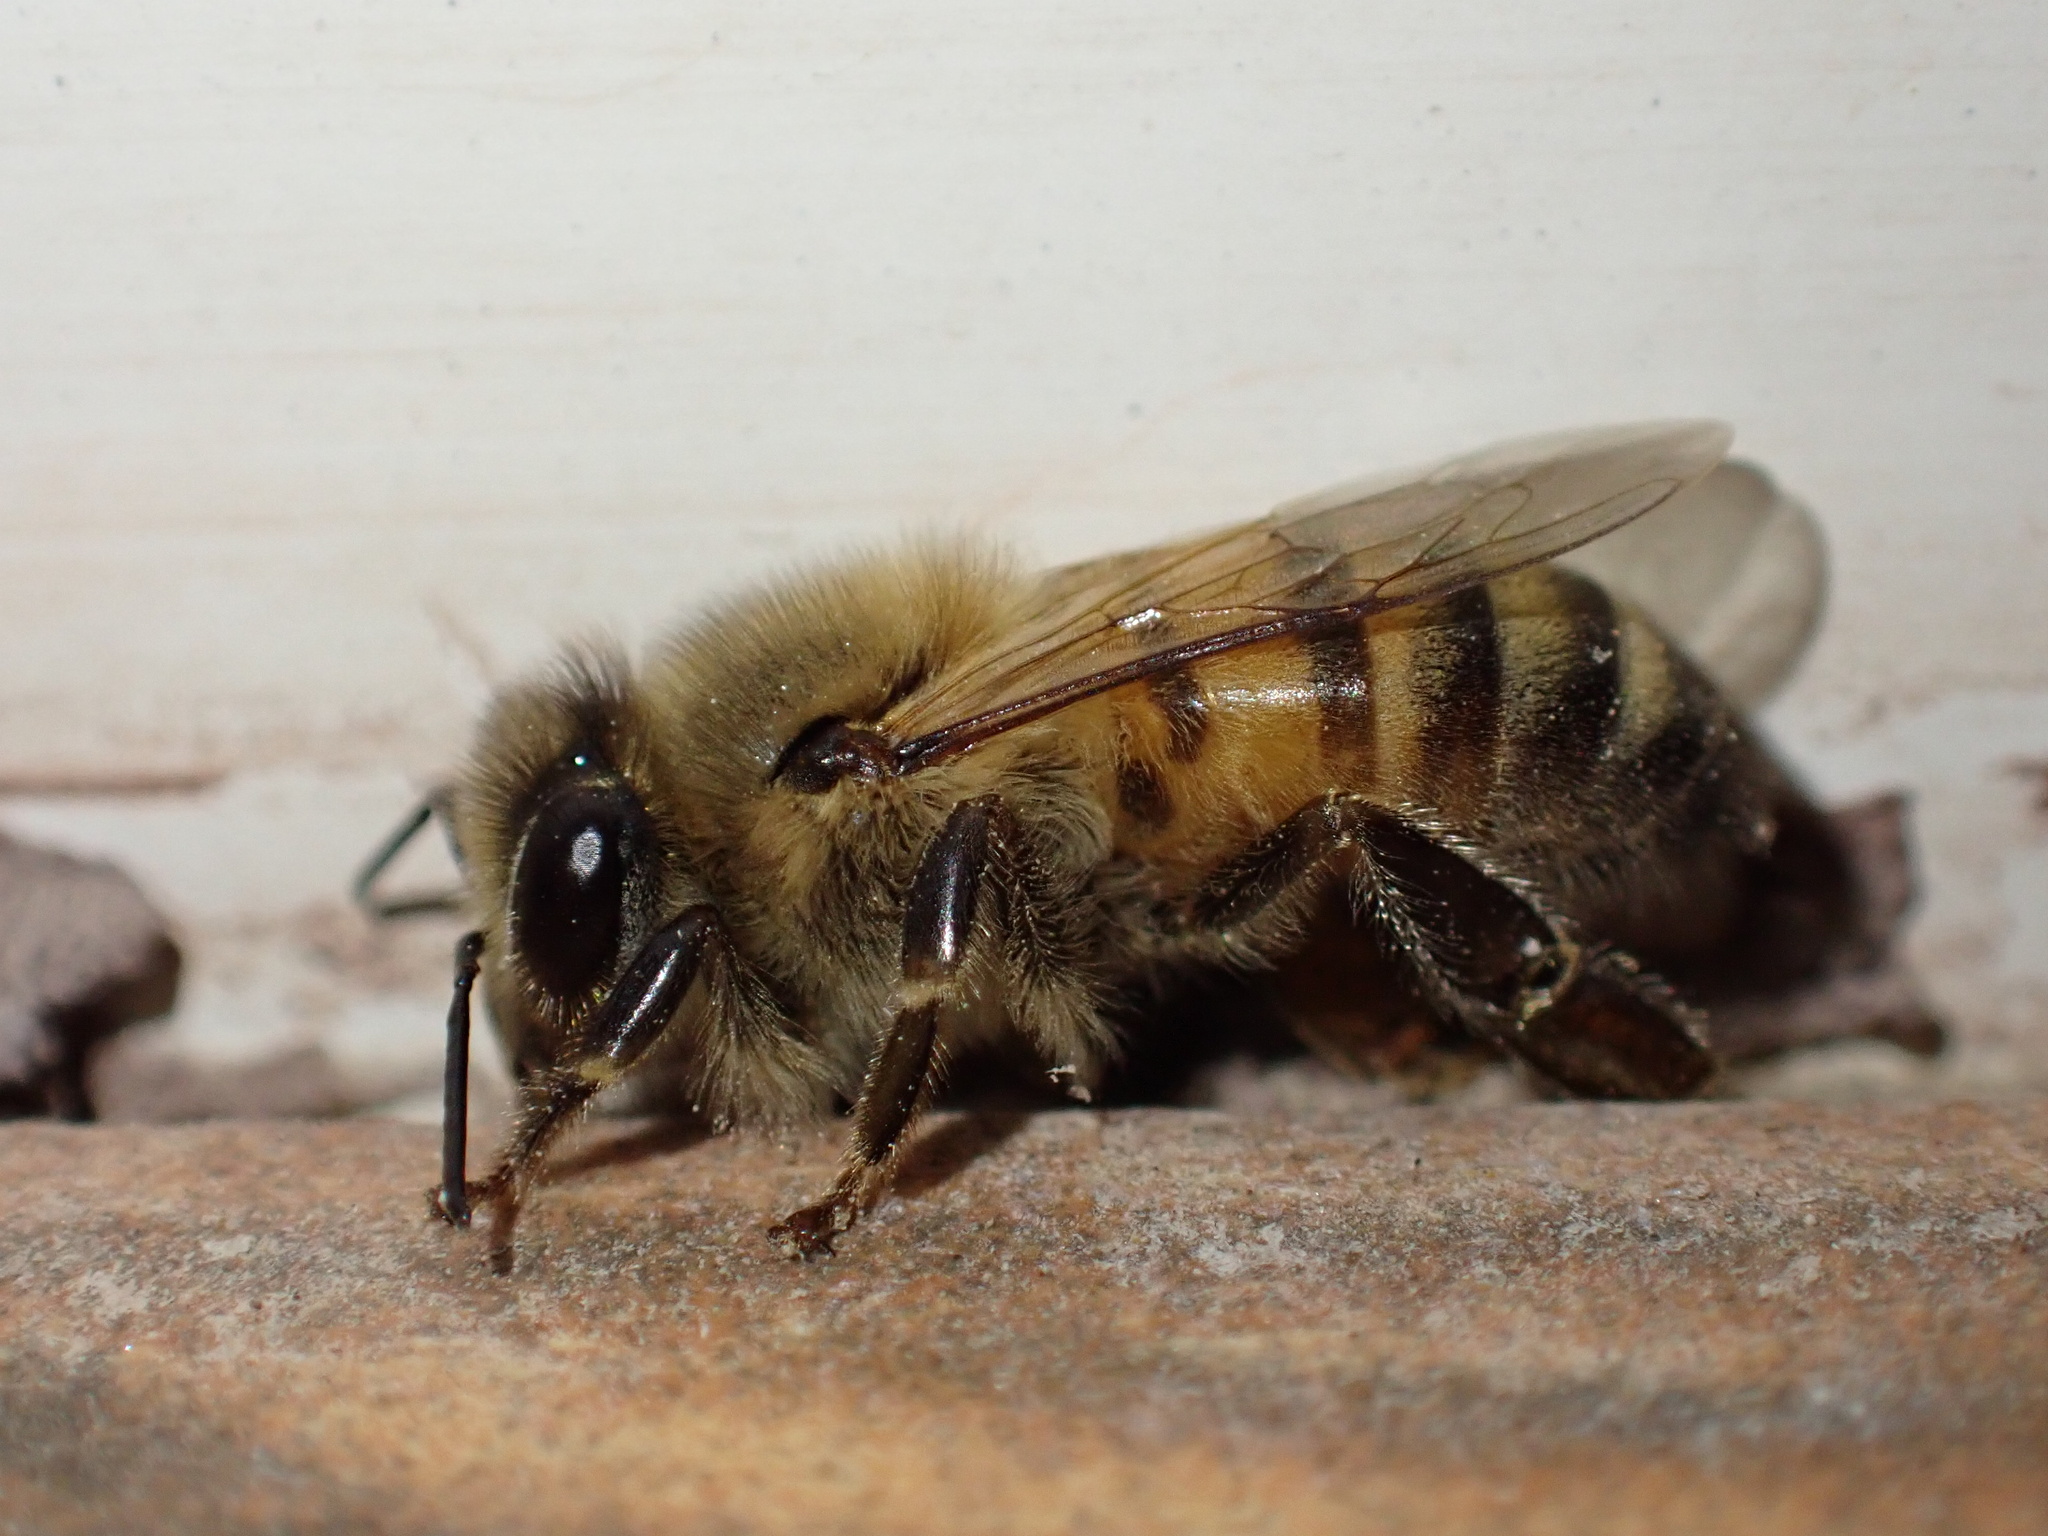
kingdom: Animalia
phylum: Arthropoda
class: Insecta
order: Hymenoptera
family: Apidae
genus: Apis
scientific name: Apis mellifera
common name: Honey bee
